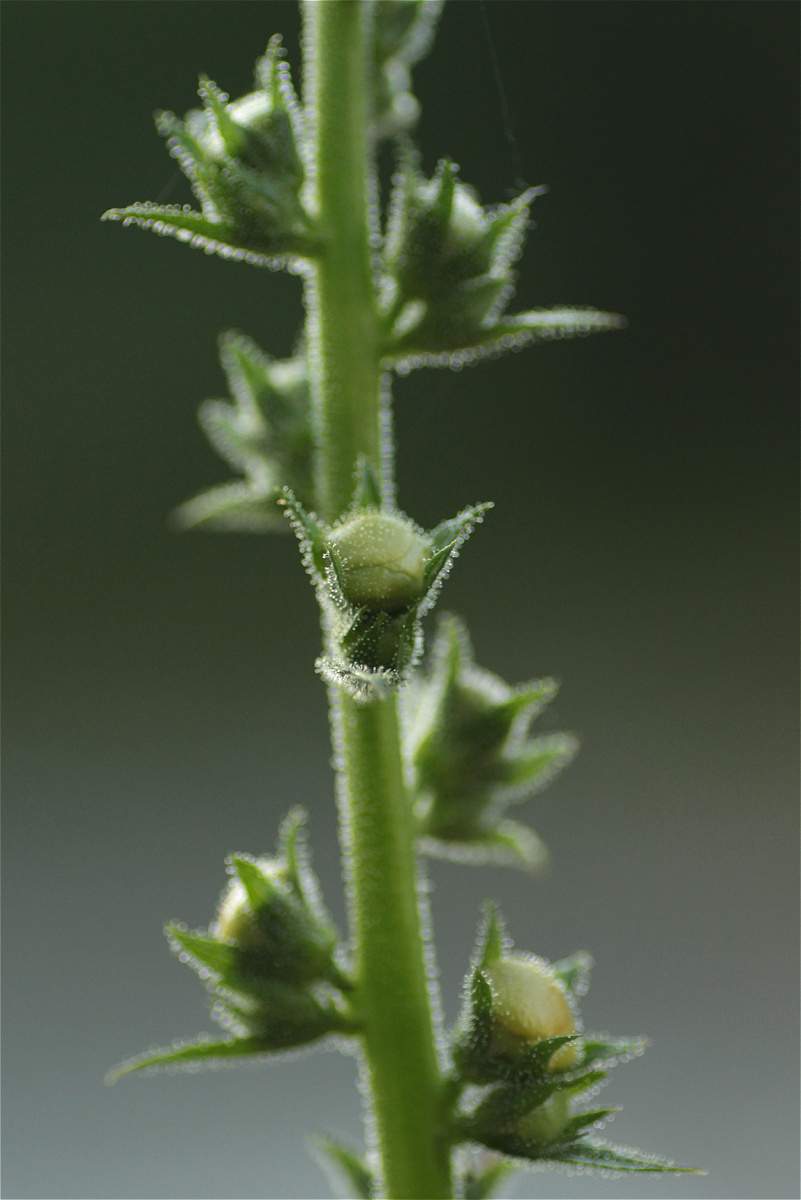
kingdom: Plantae
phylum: Tracheophyta
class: Magnoliopsida
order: Lamiales
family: Scrophulariaceae
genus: Verbascum
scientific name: Verbascum virgatum
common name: Twiggy mullein
